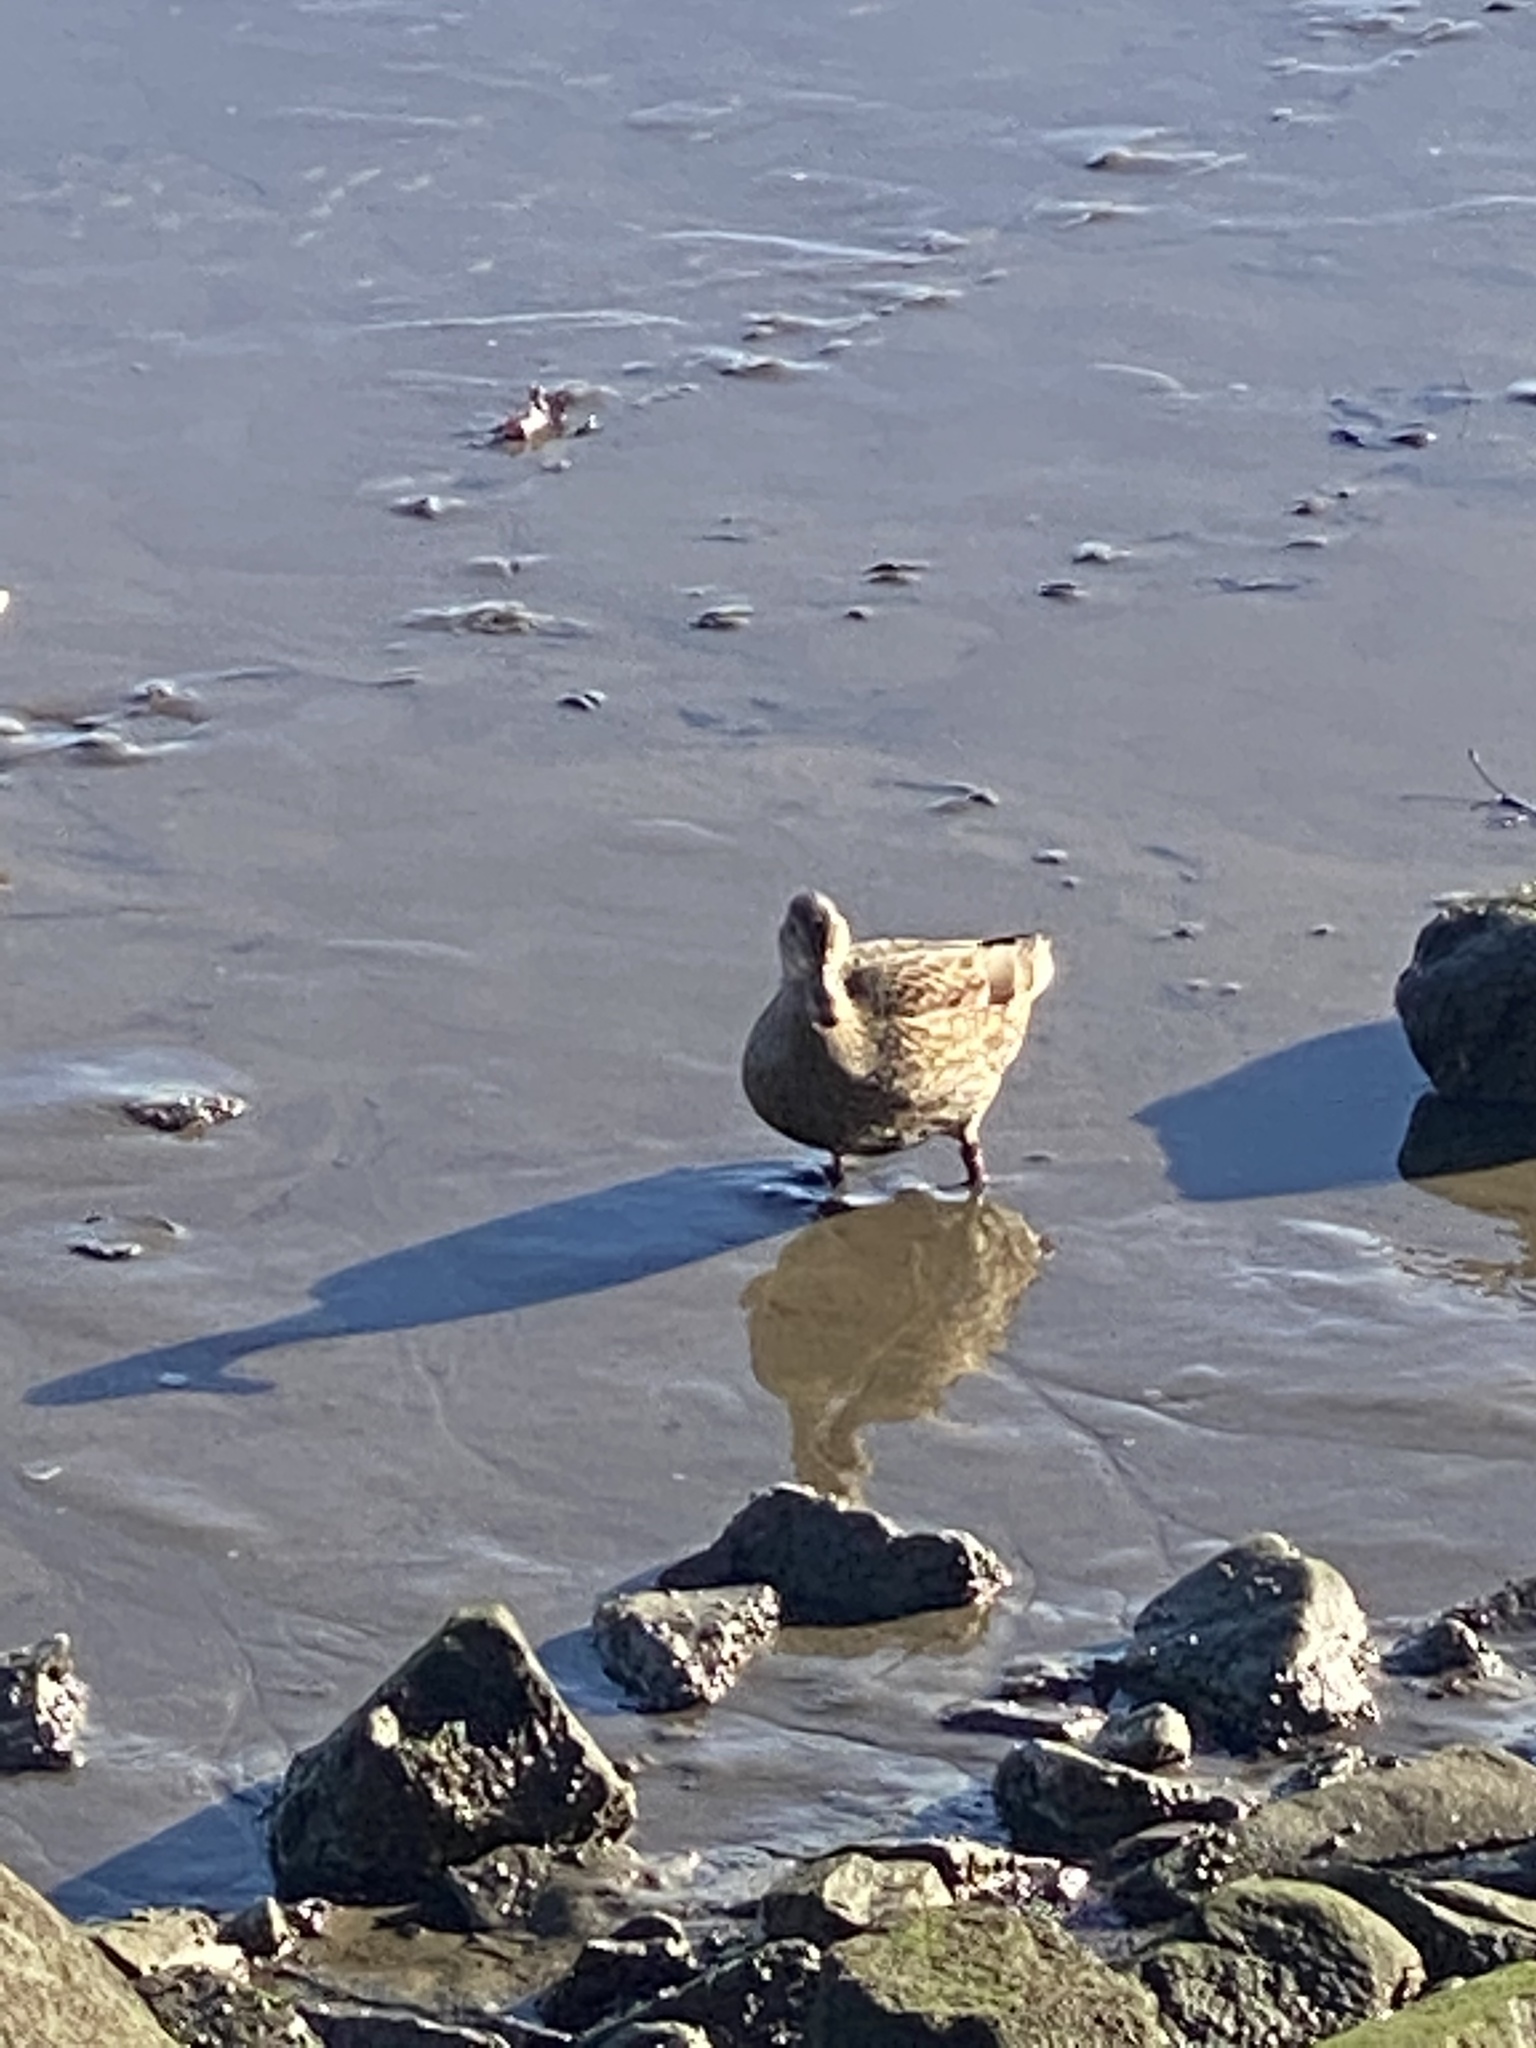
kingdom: Animalia
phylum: Chordata
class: Aves
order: Anseriformes
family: Anatidae
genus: Anas
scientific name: Anas platyrhynchos
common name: Mallard
